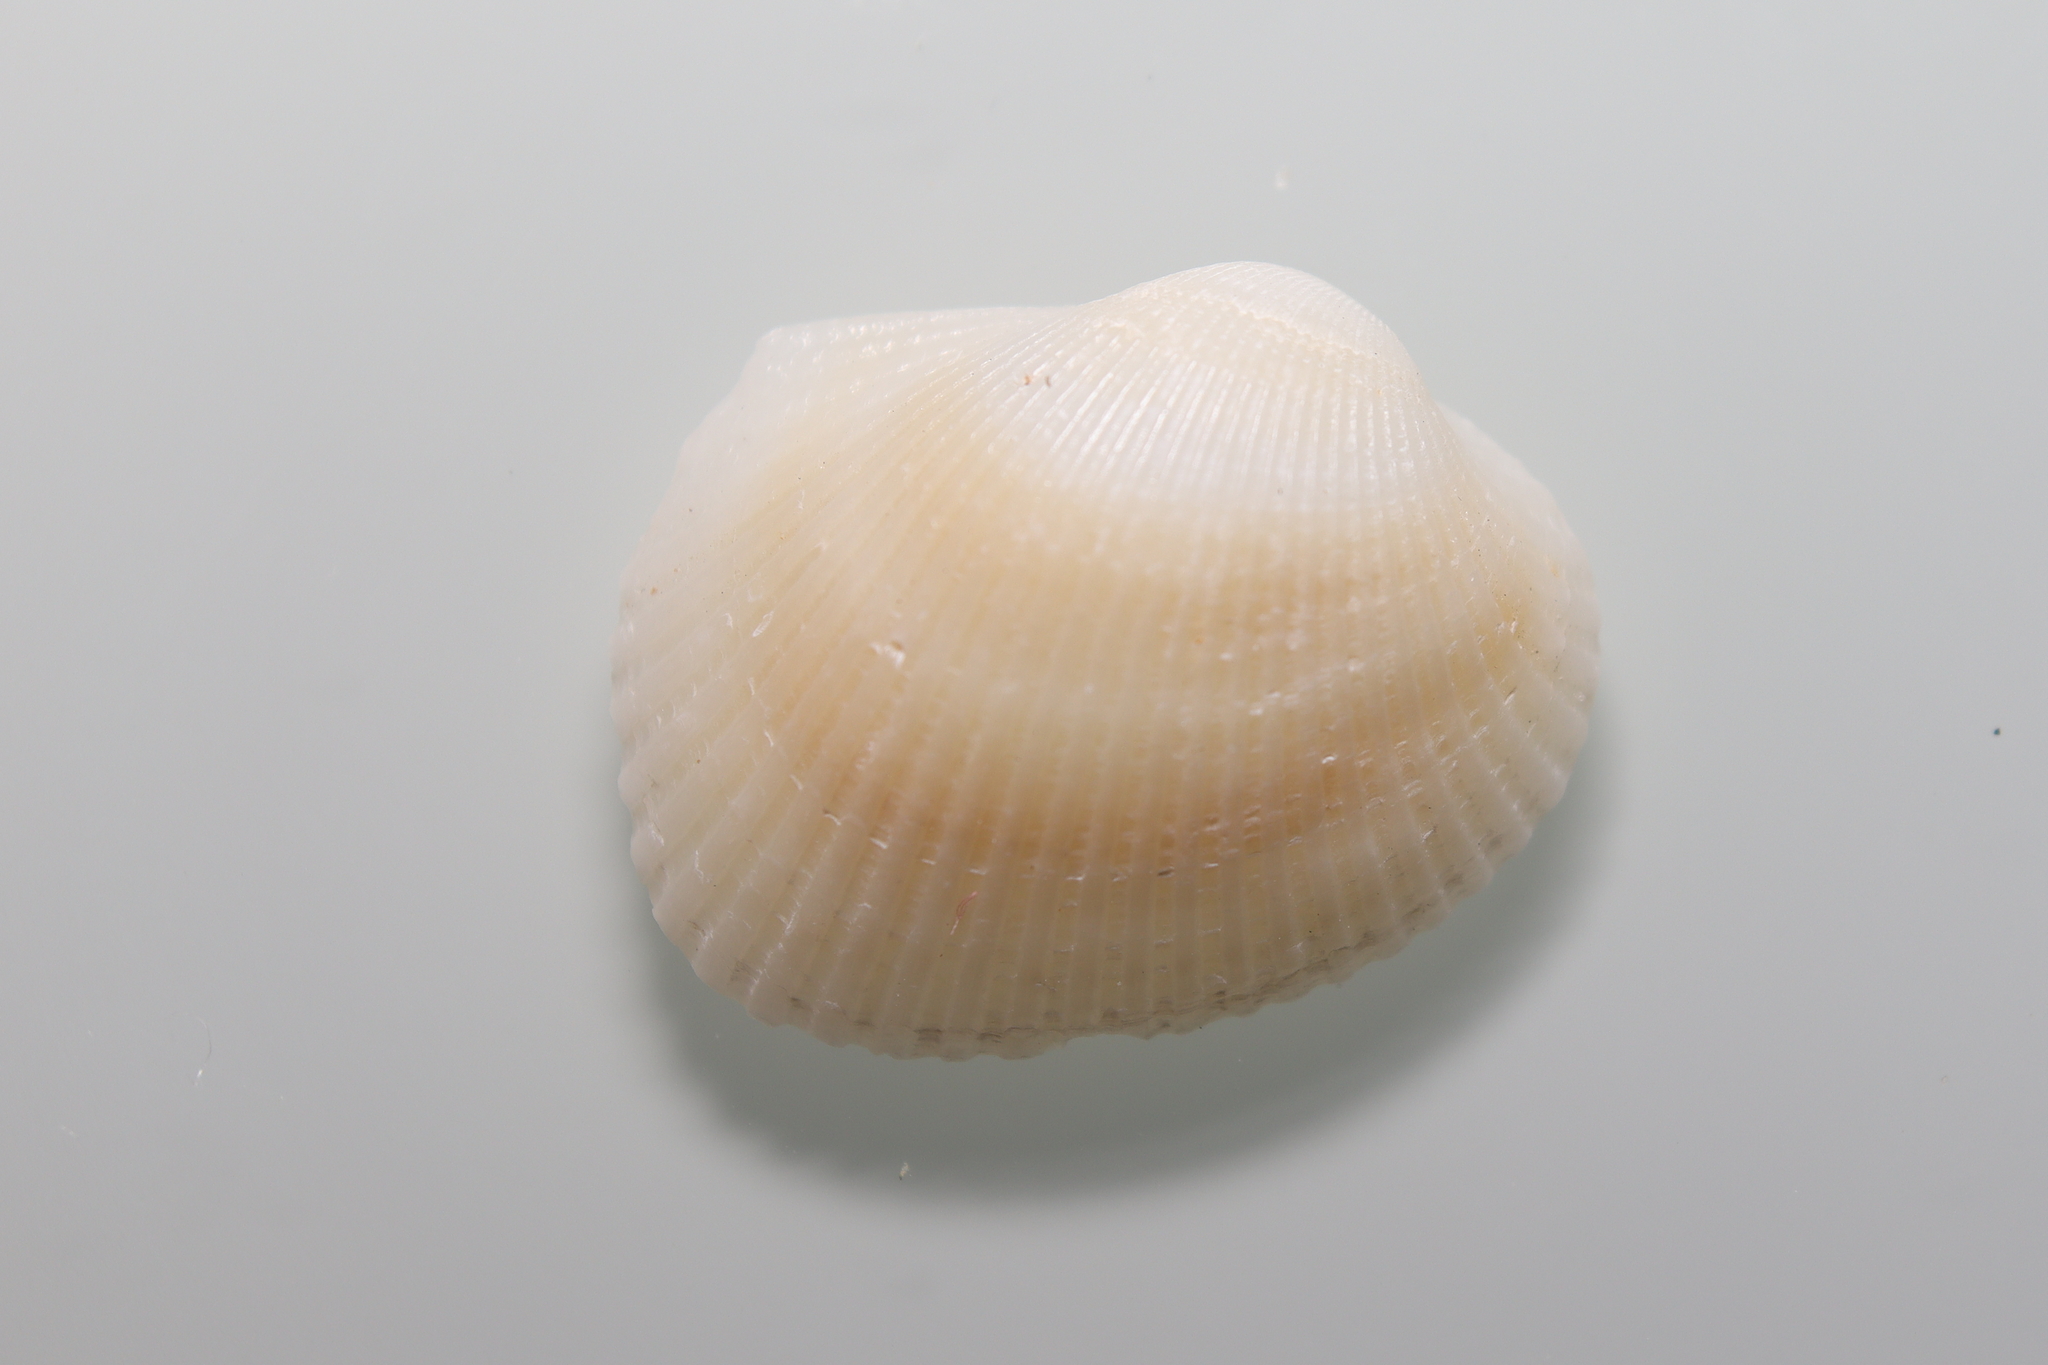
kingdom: Animalia
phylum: Mollusca
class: Bivalvia
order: Arcida
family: Arcidae
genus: Lunarca
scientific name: Lunarca ovalis
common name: Blood ark
